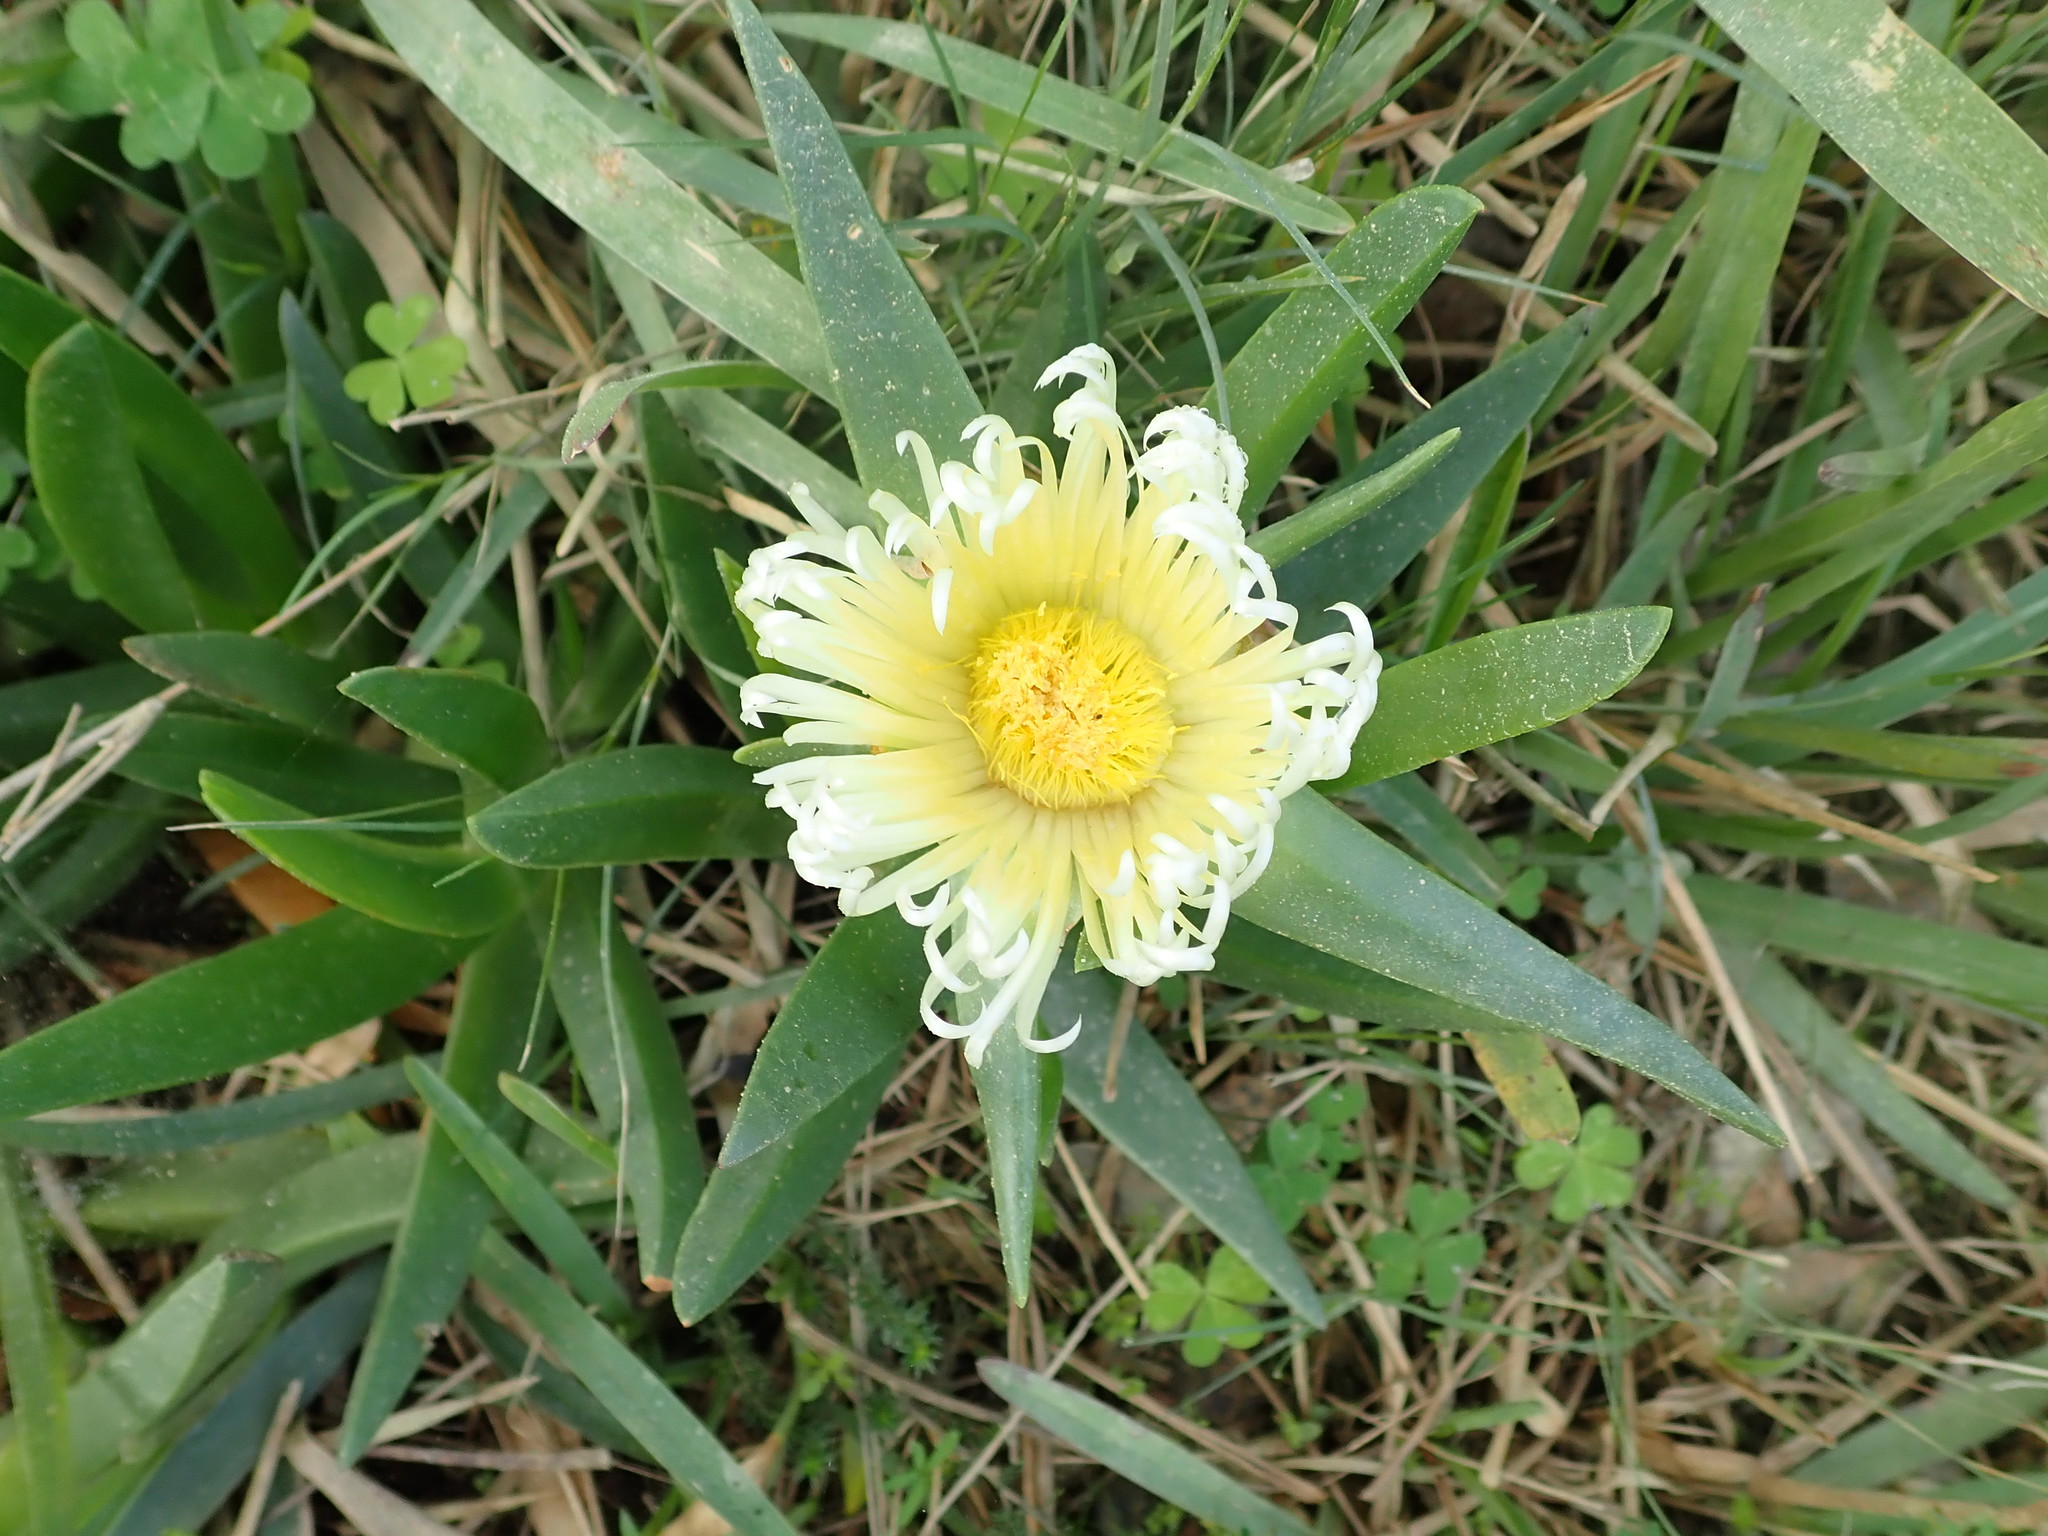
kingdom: Plantae
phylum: Tracheophyta
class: Magnoliopsida
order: Caryophyllales
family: Aizoaceae
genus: Carpobrotus
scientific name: Carpobrotus edulis
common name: Hottentot-fig
